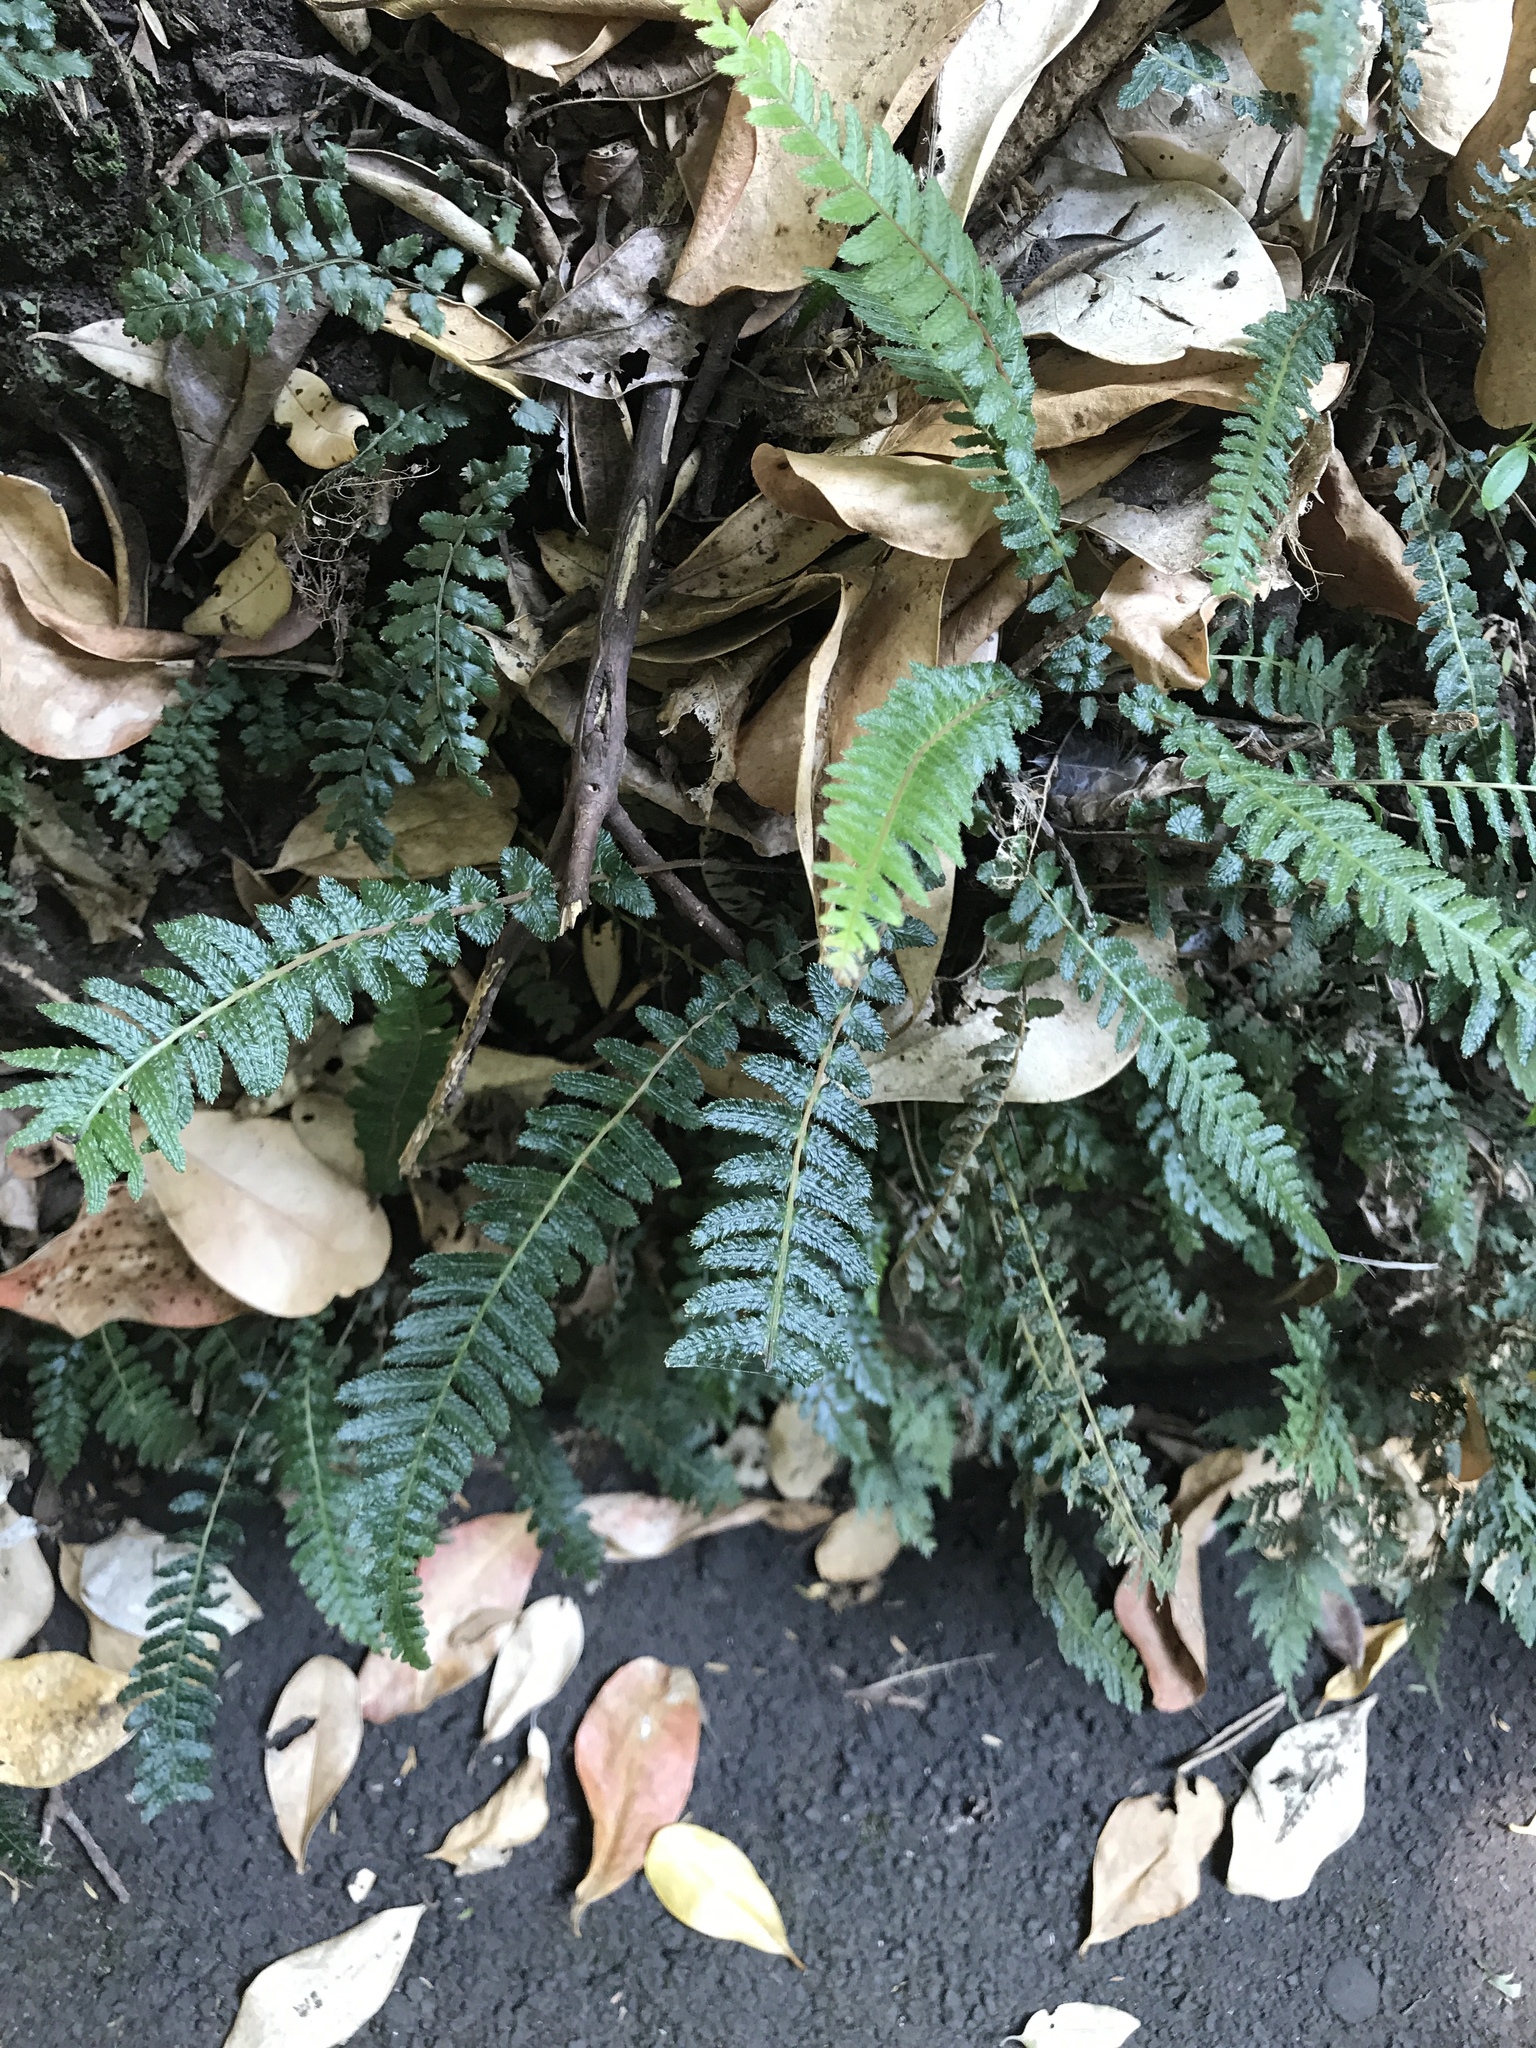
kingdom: Plantae
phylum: Tracheophyta
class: Polypodiopsida
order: Polypodiales
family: Blechnaceae
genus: Doodia
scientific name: Doodia australis
